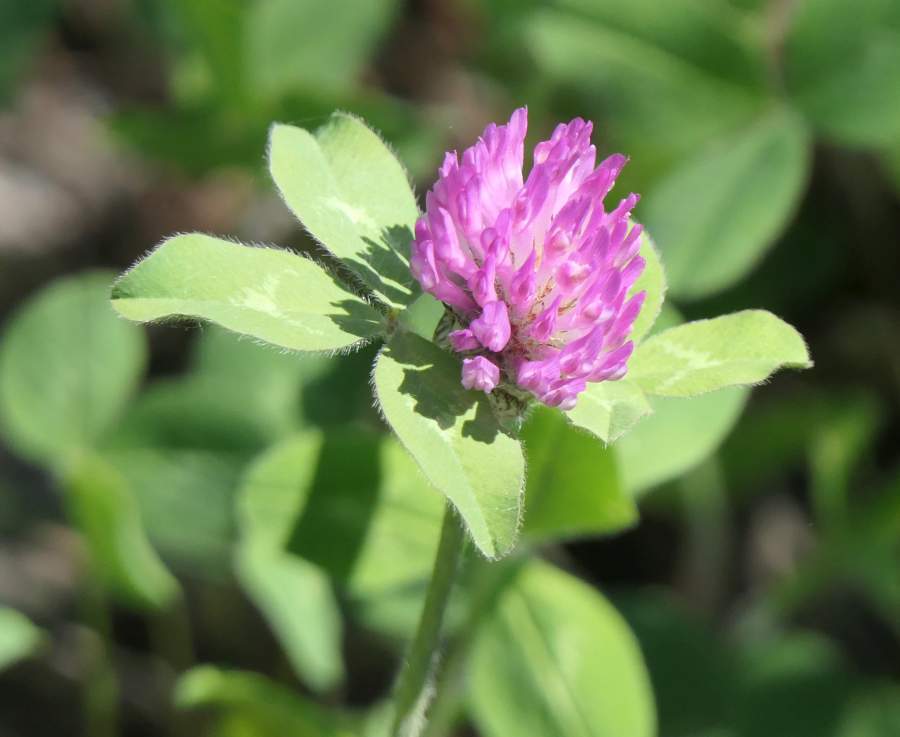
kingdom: Plantae
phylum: Tracheophyta
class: Magnoliopsida
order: Fabales
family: Fabaceae
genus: Trifolium
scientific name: Trifolium pratense
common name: Red clover
